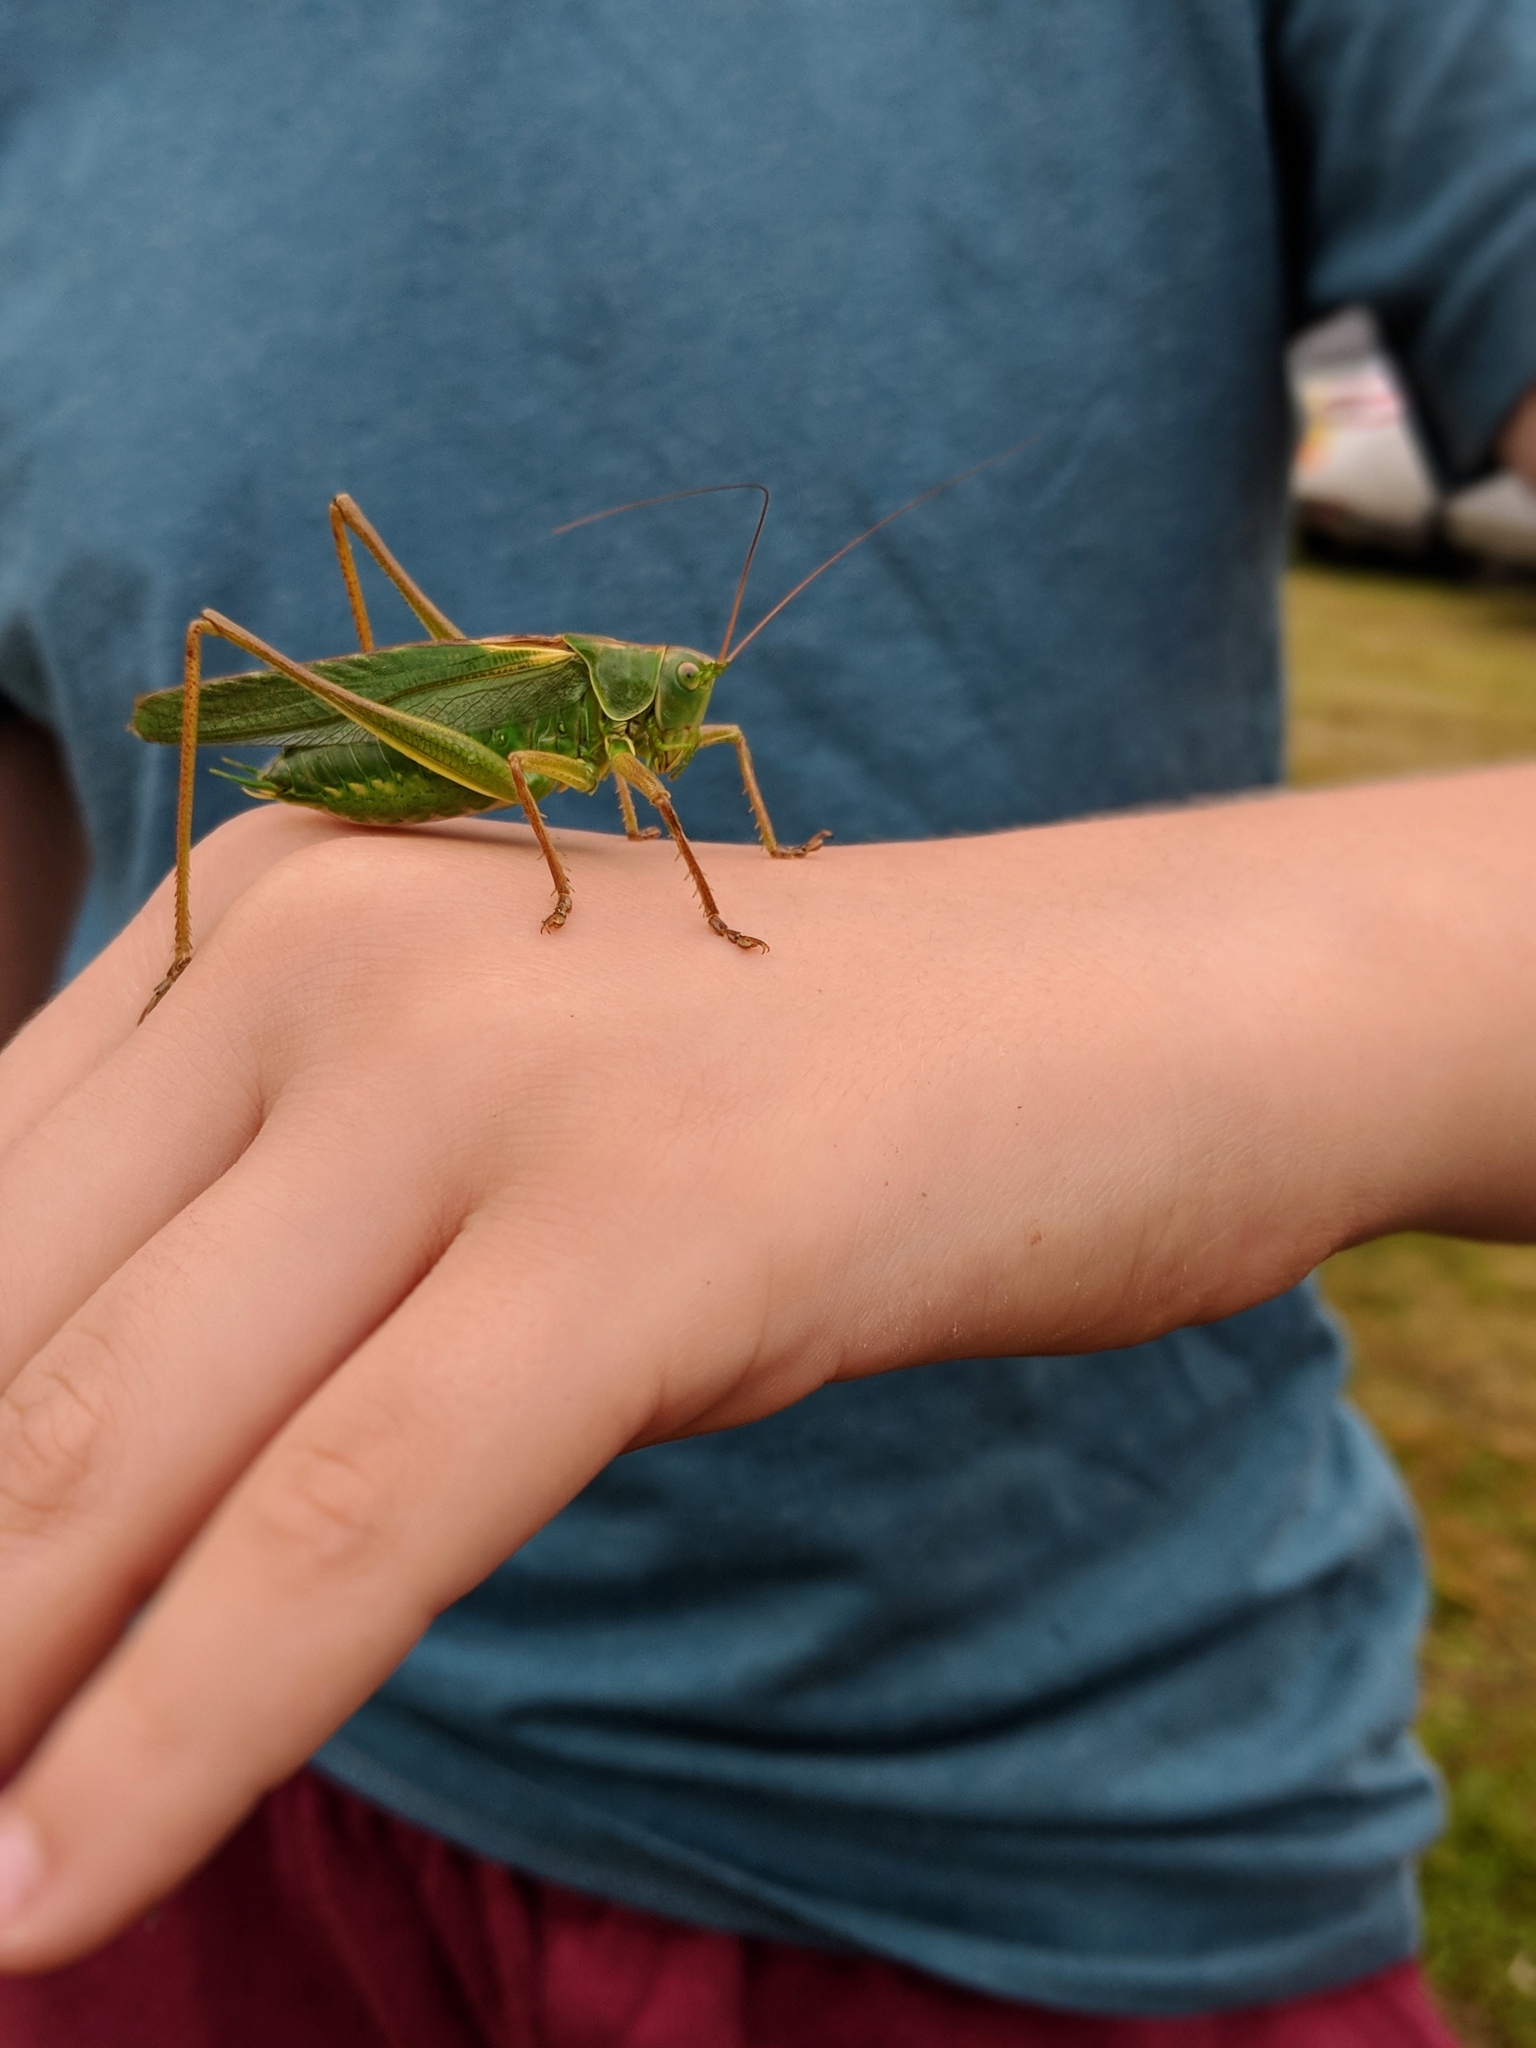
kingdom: Animalia
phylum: Arthropoda
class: Insecta
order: Orthoptera
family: Tettigoniidae
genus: Tettigonia
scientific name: Tettigonia viridissima
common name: Great green bush-cricket
